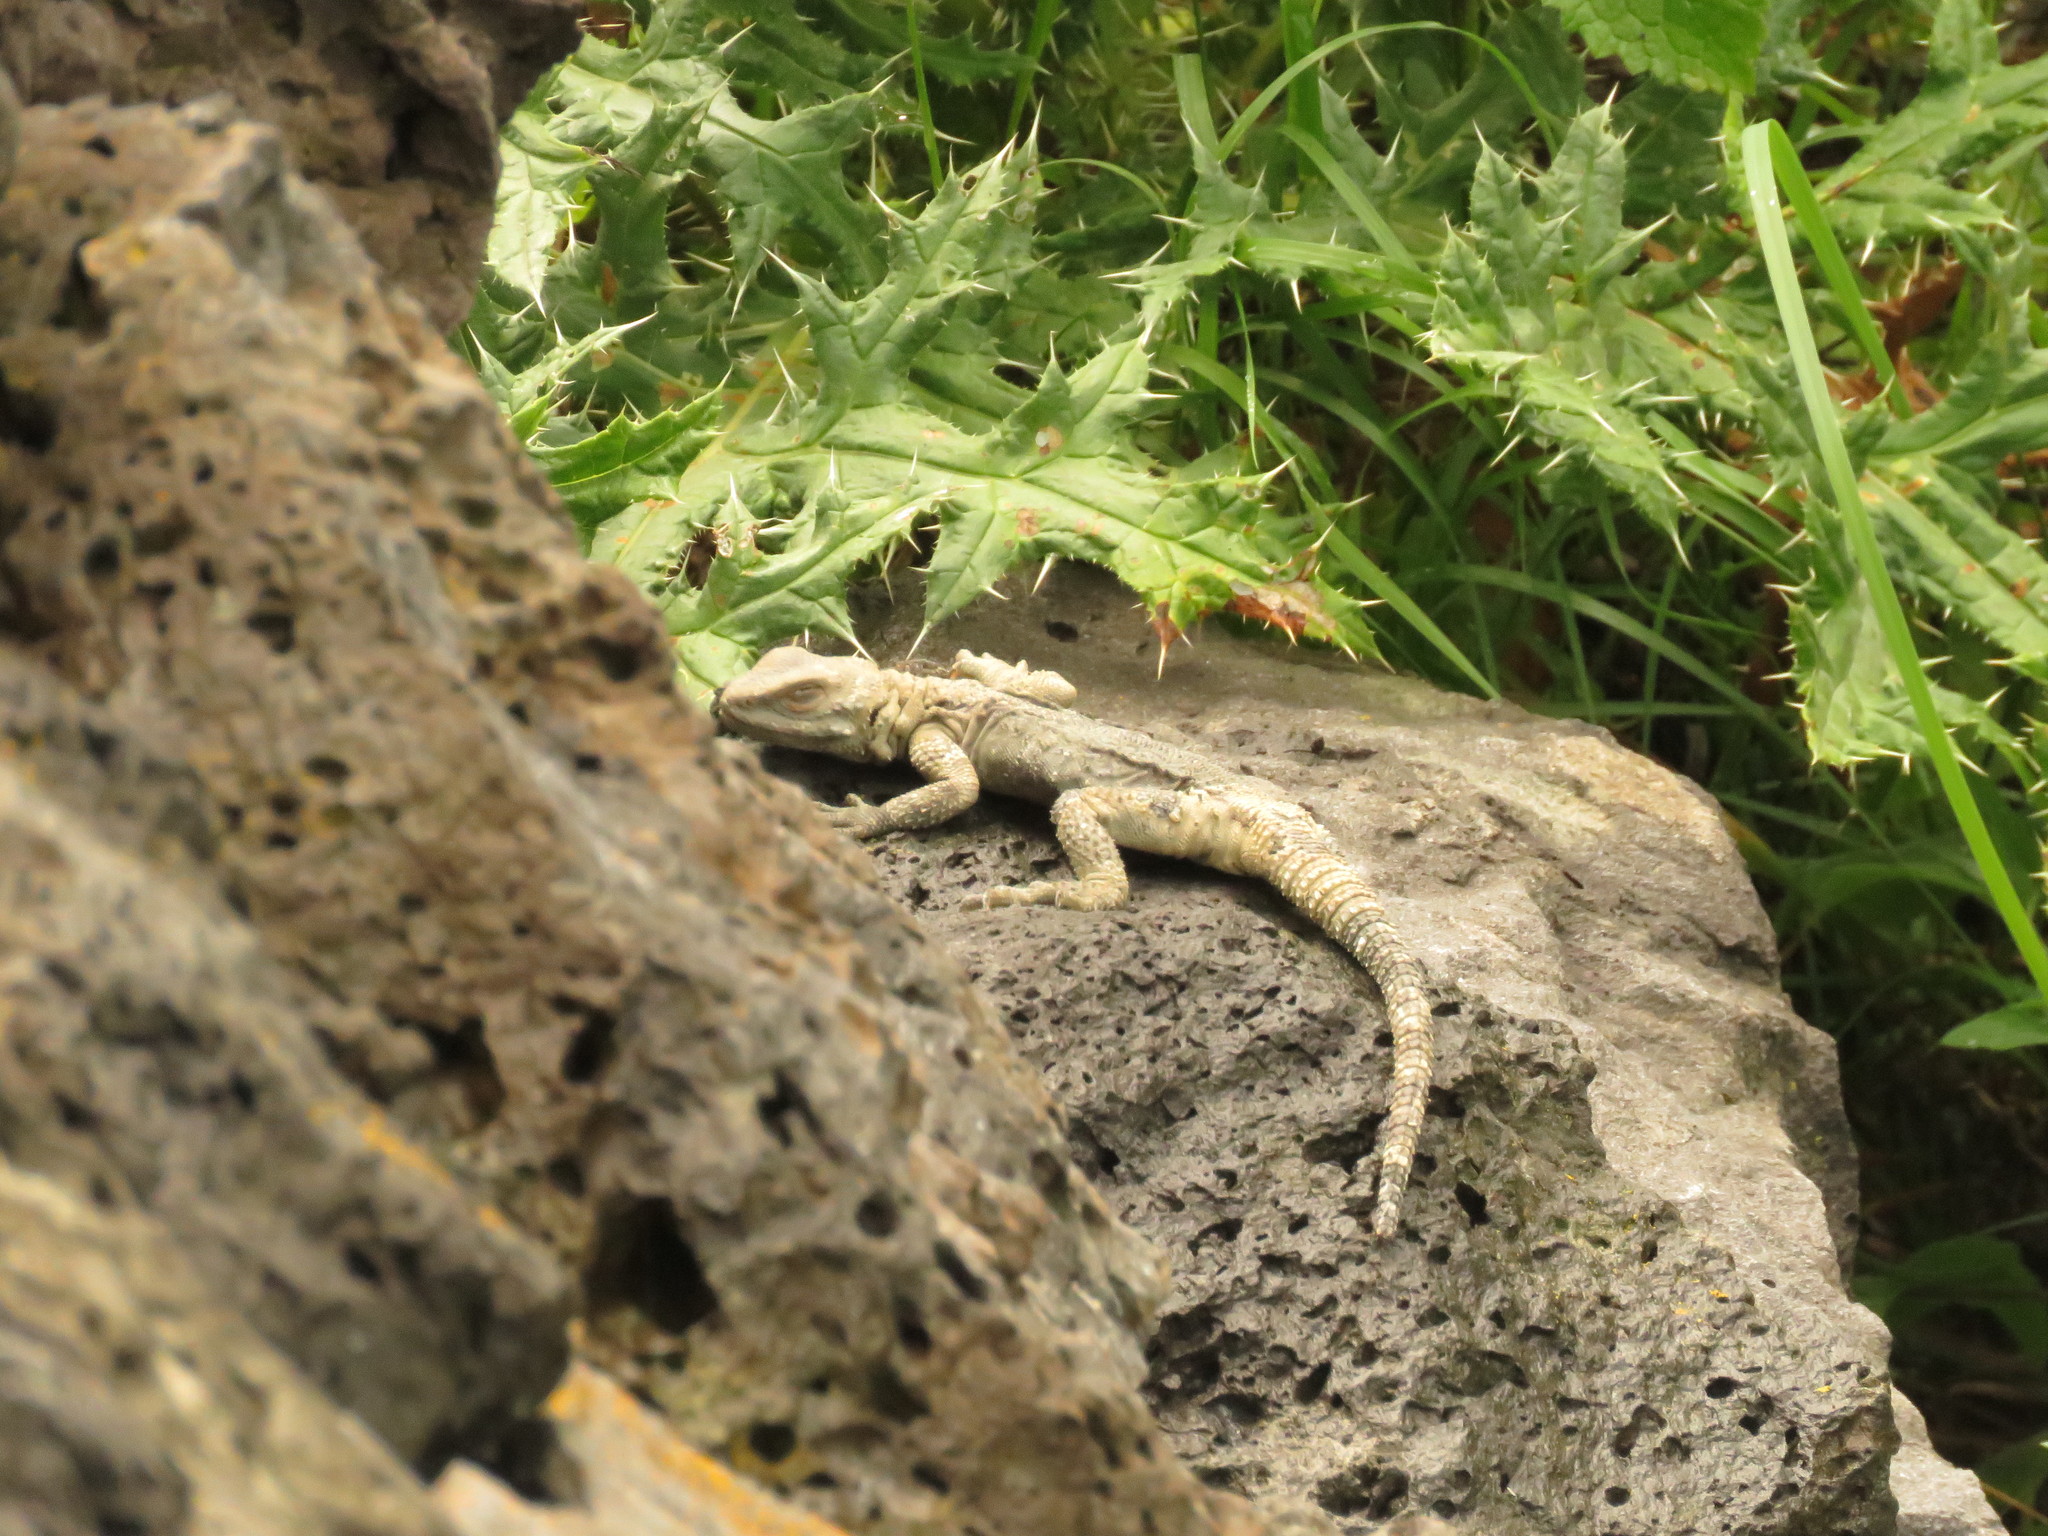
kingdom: Animalia
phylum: Chordata
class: Squamata
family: Agamidae
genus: Paralaudakia
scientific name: Paralaudakia caucasia
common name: Caucasian agama
